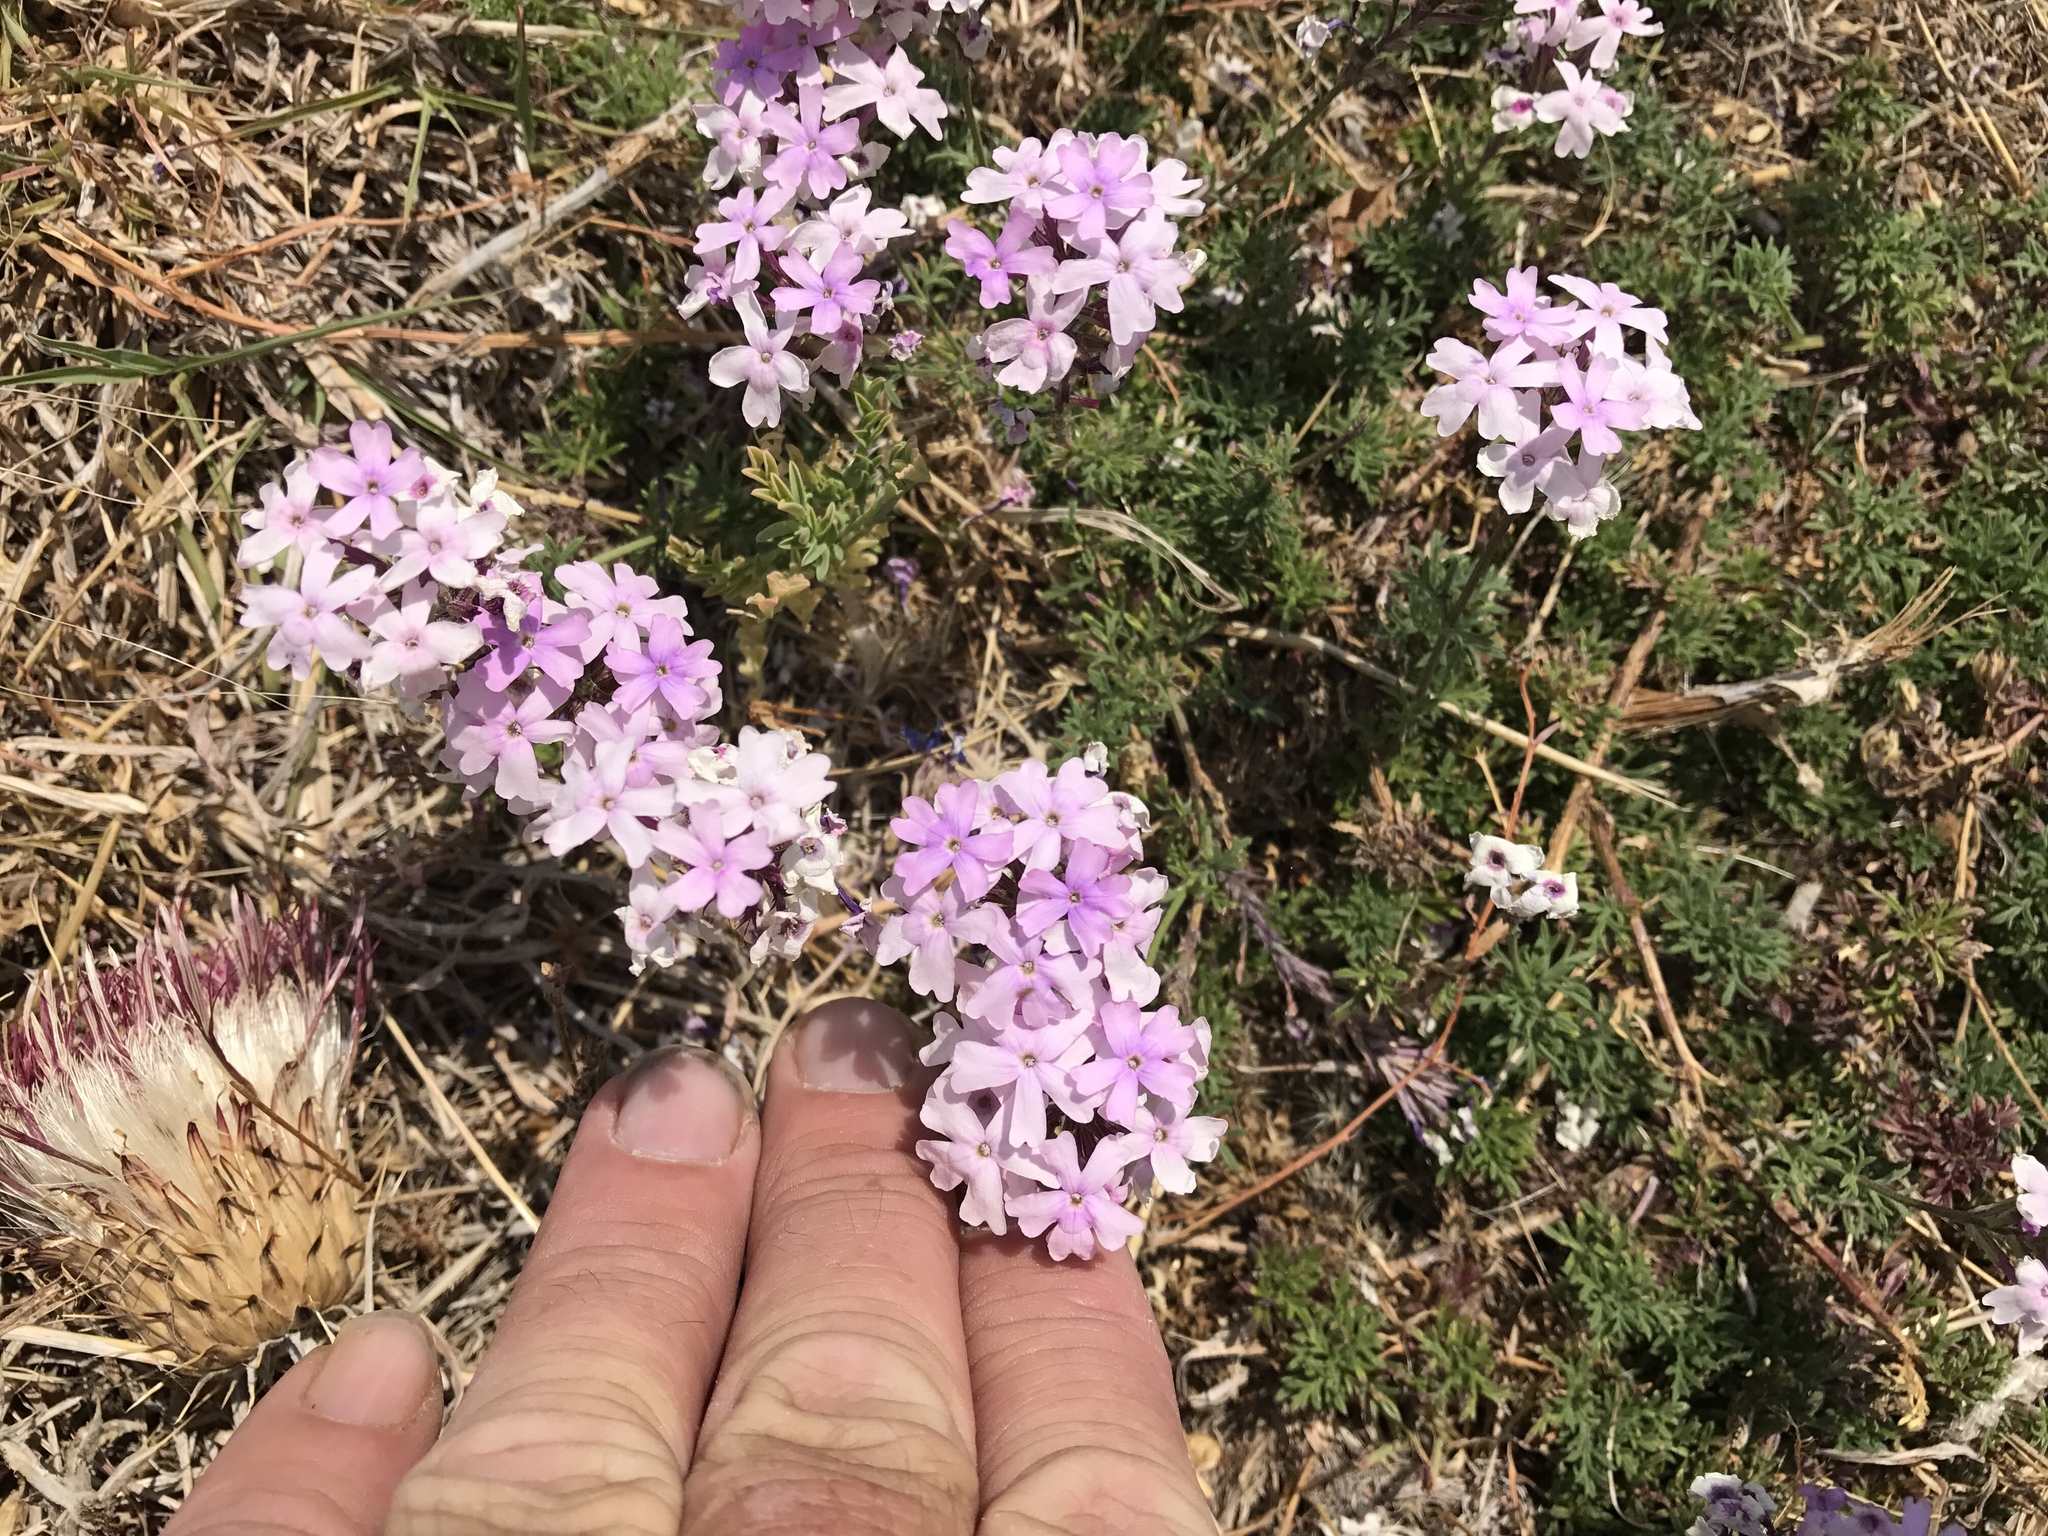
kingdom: Plantae
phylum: Tracheophyta
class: Magnoliopsida
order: Lamiales
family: Verbenaceae
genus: Verbena
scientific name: Verbena bipinnatifida
